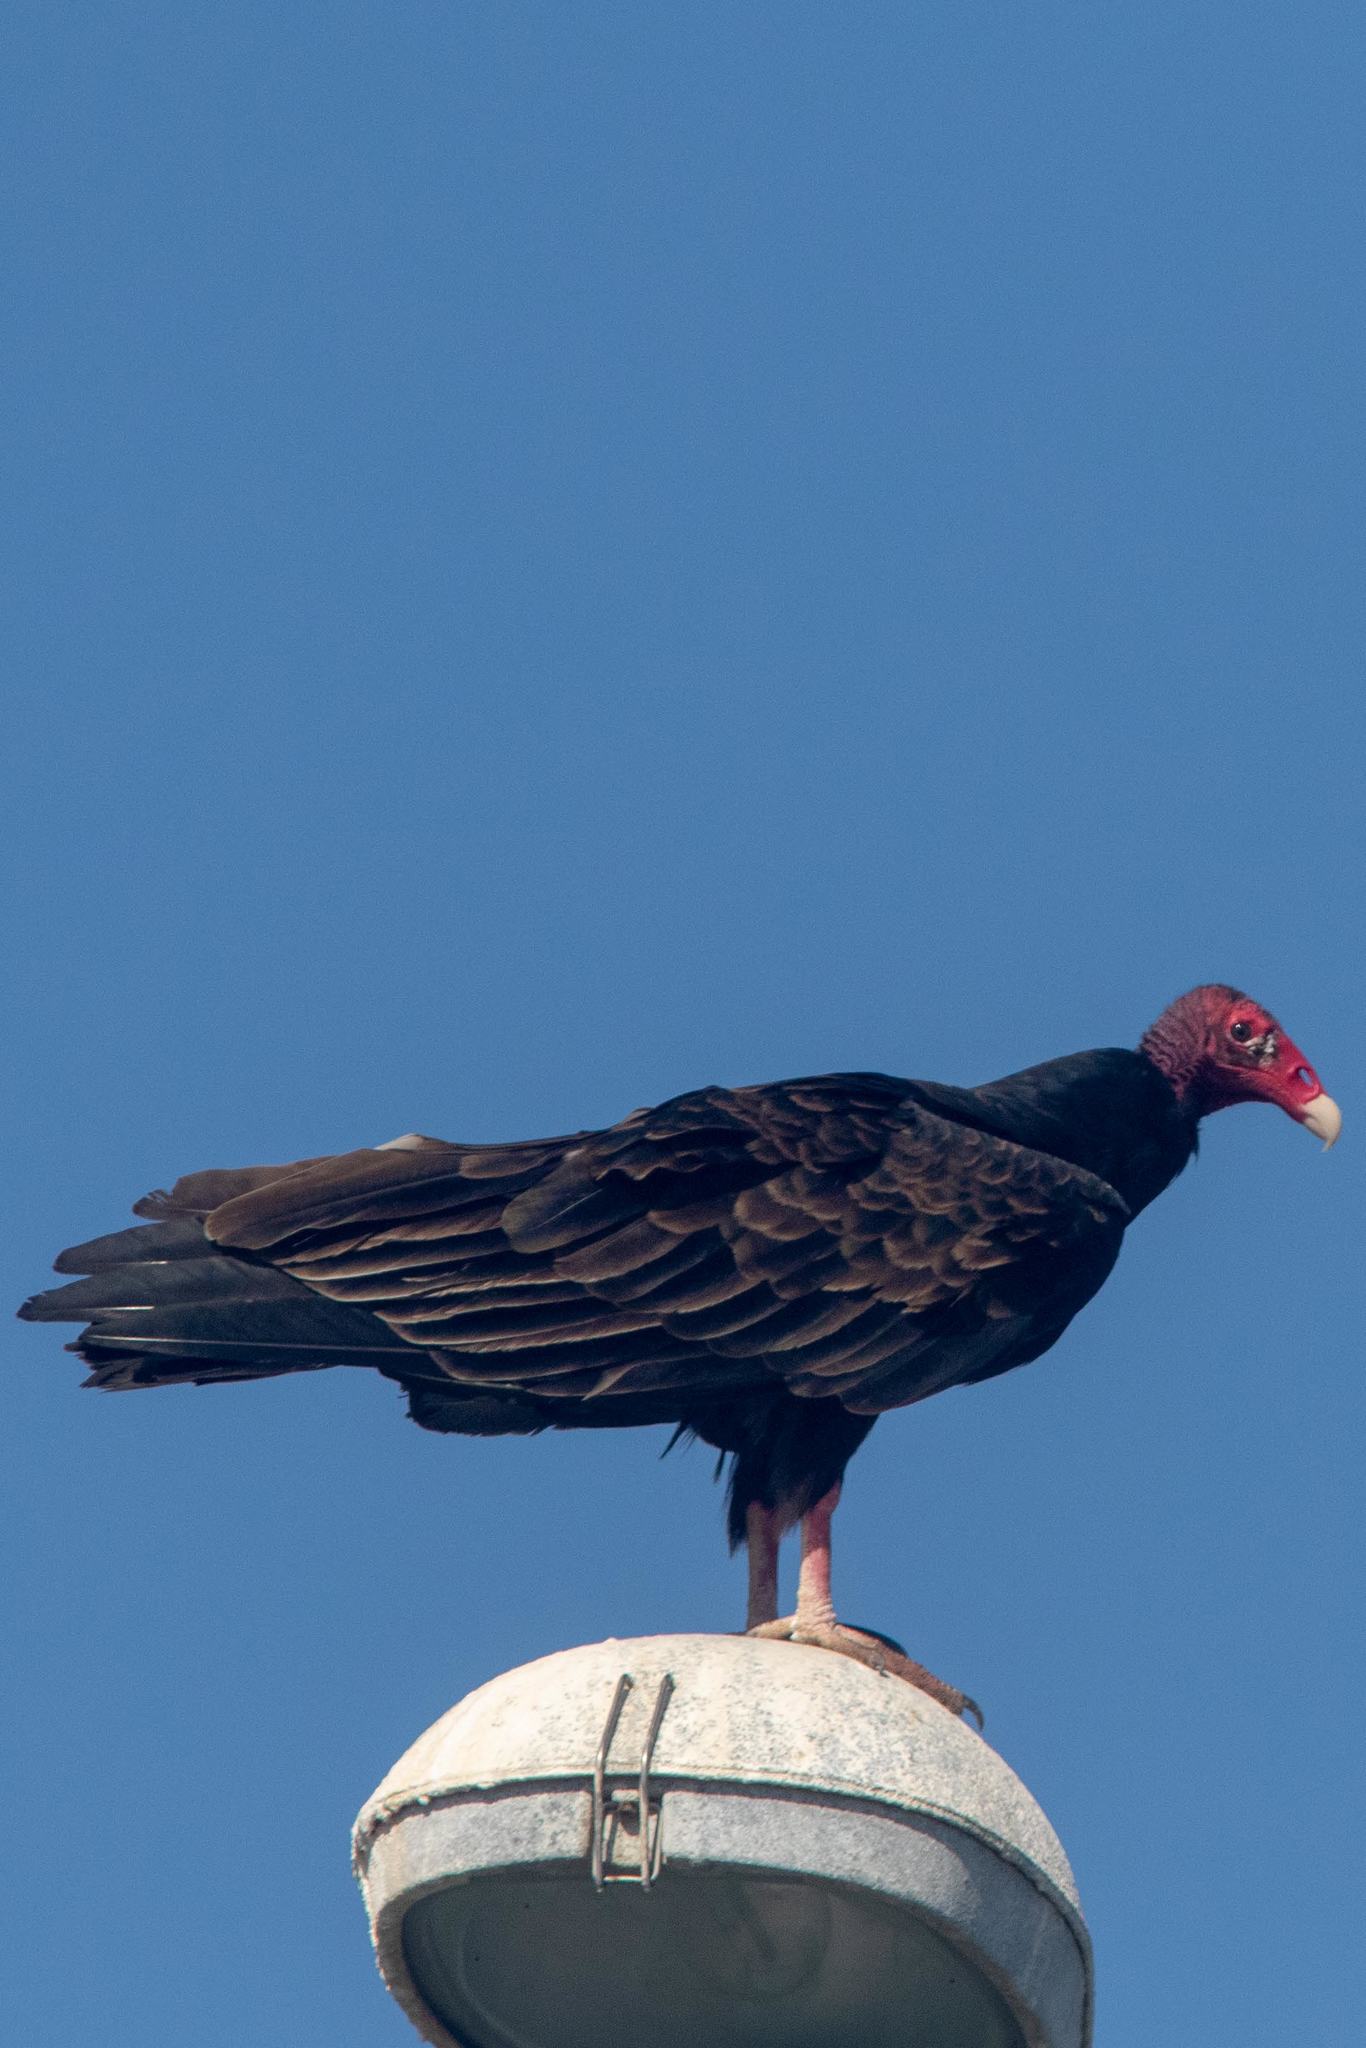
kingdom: Animalia
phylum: Chordata
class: Aves
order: Accipitriformes
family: Cathartidae
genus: Cathartes
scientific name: Cathartes aura
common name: Turkey vulture
